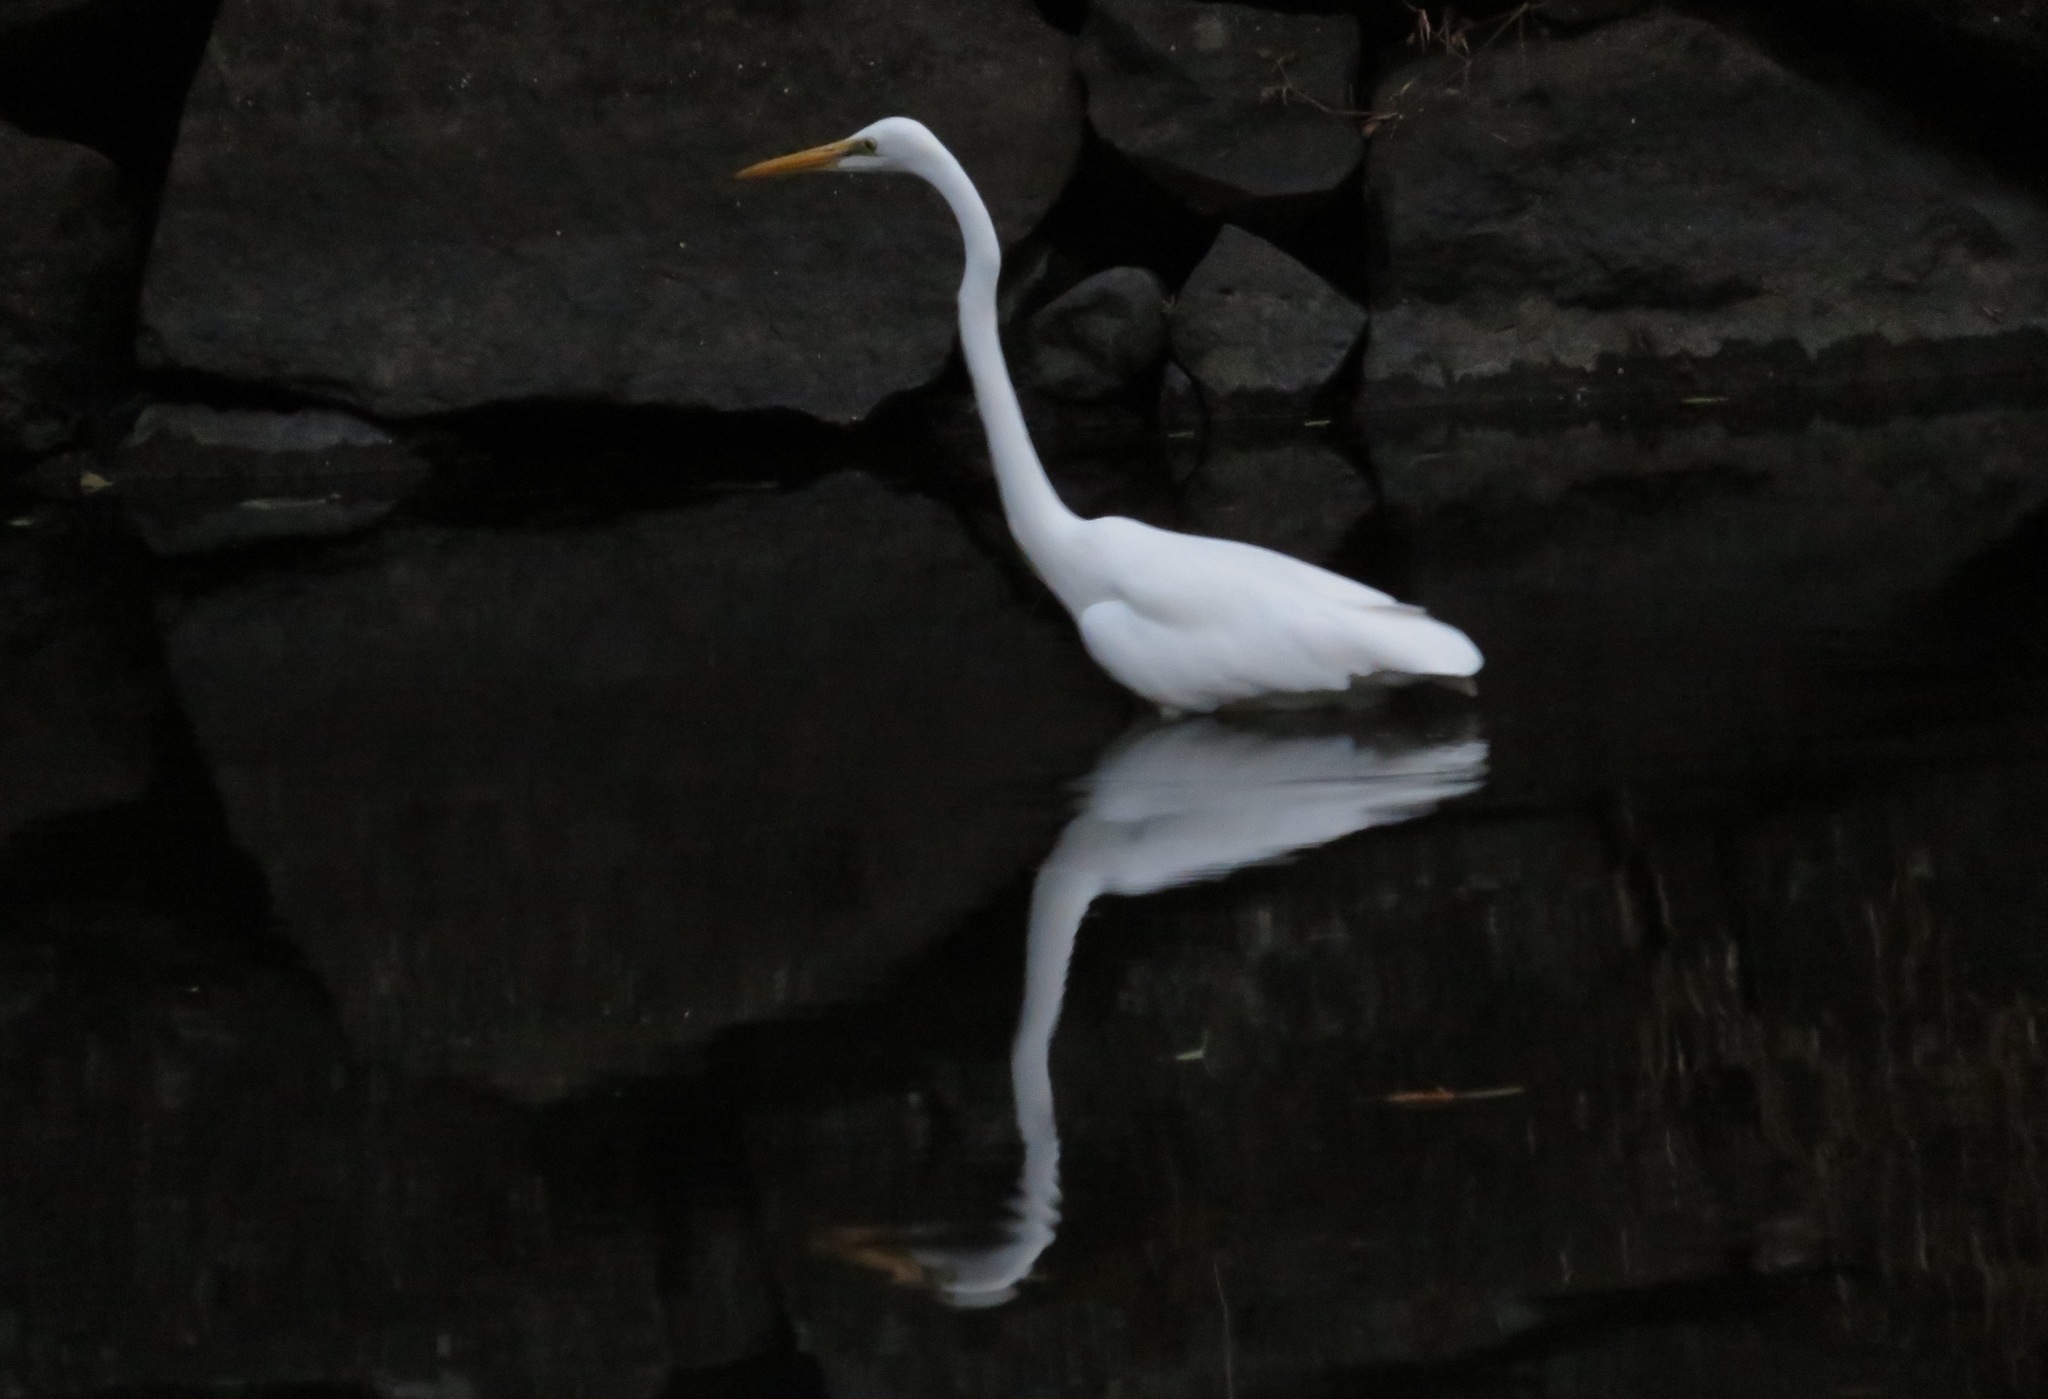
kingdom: Animalia
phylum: Chordata
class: Aves
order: Pelecaniformes
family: Ardeidae
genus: Ardea
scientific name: Ardea alba
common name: Great egret
